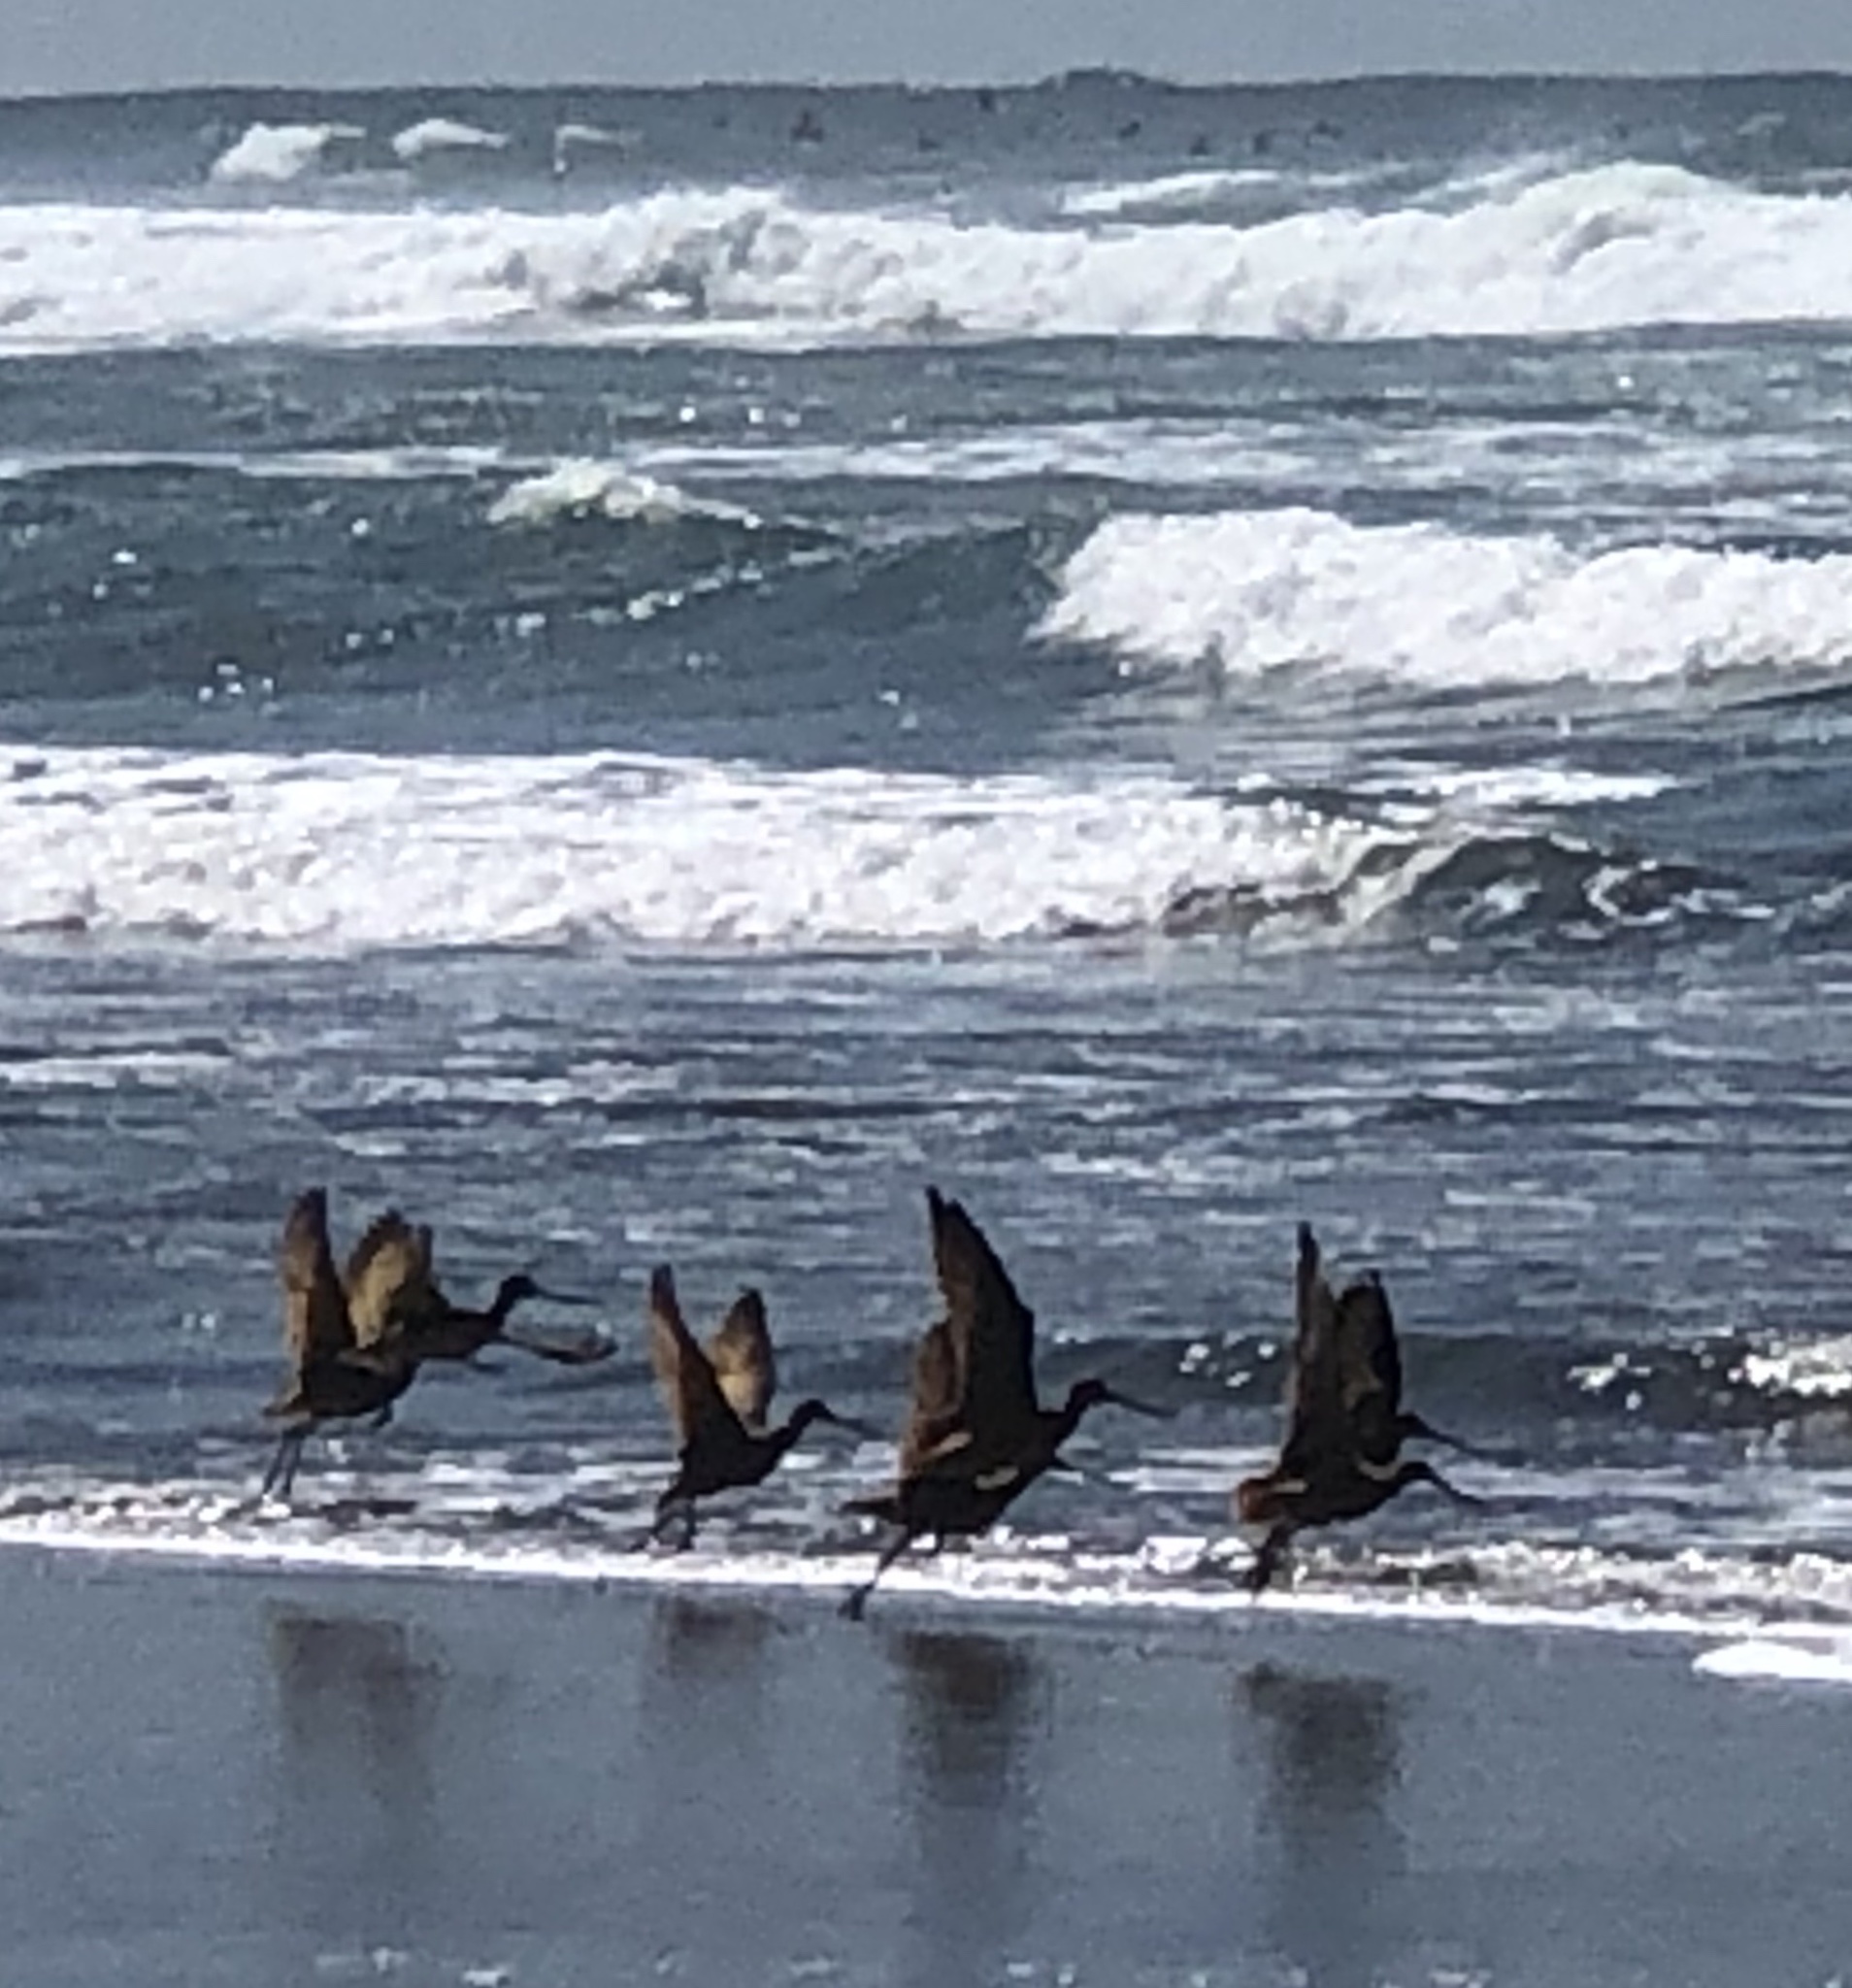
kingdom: Animalia
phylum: Chordata
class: Aves
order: Charadriiformes
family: Scolopacidae
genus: Limosa
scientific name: Limosa fedoa
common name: Marbled godwit
